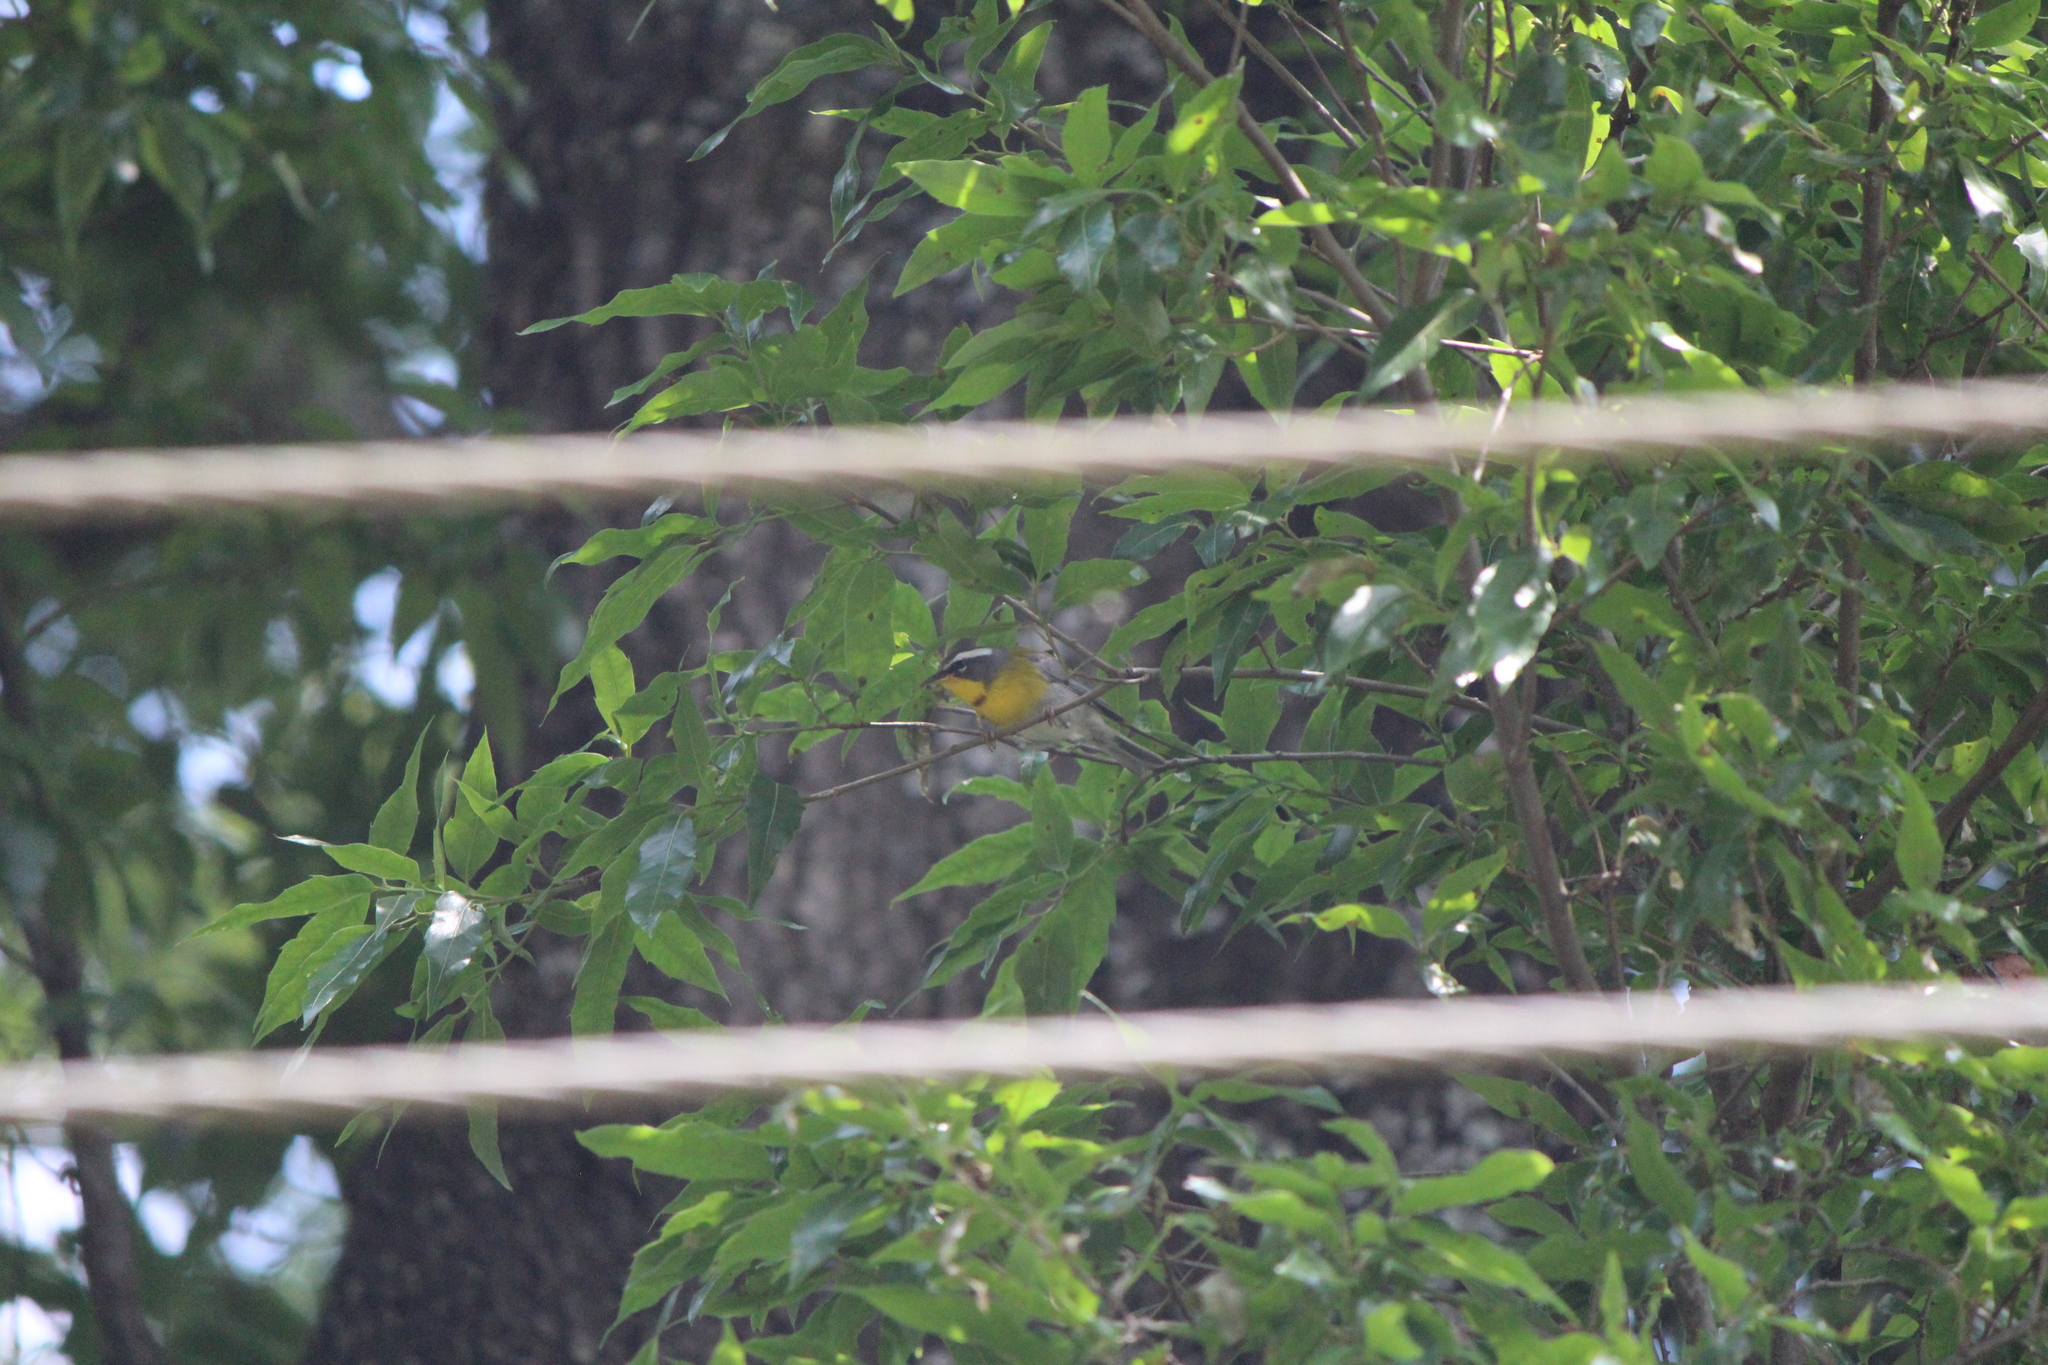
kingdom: Animalia
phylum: Chordata
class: Aves
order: Passeriformes
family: Parulidae
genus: Oreothlypis
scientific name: Oreothlypis superciliosa
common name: Crescent-chested warbler
